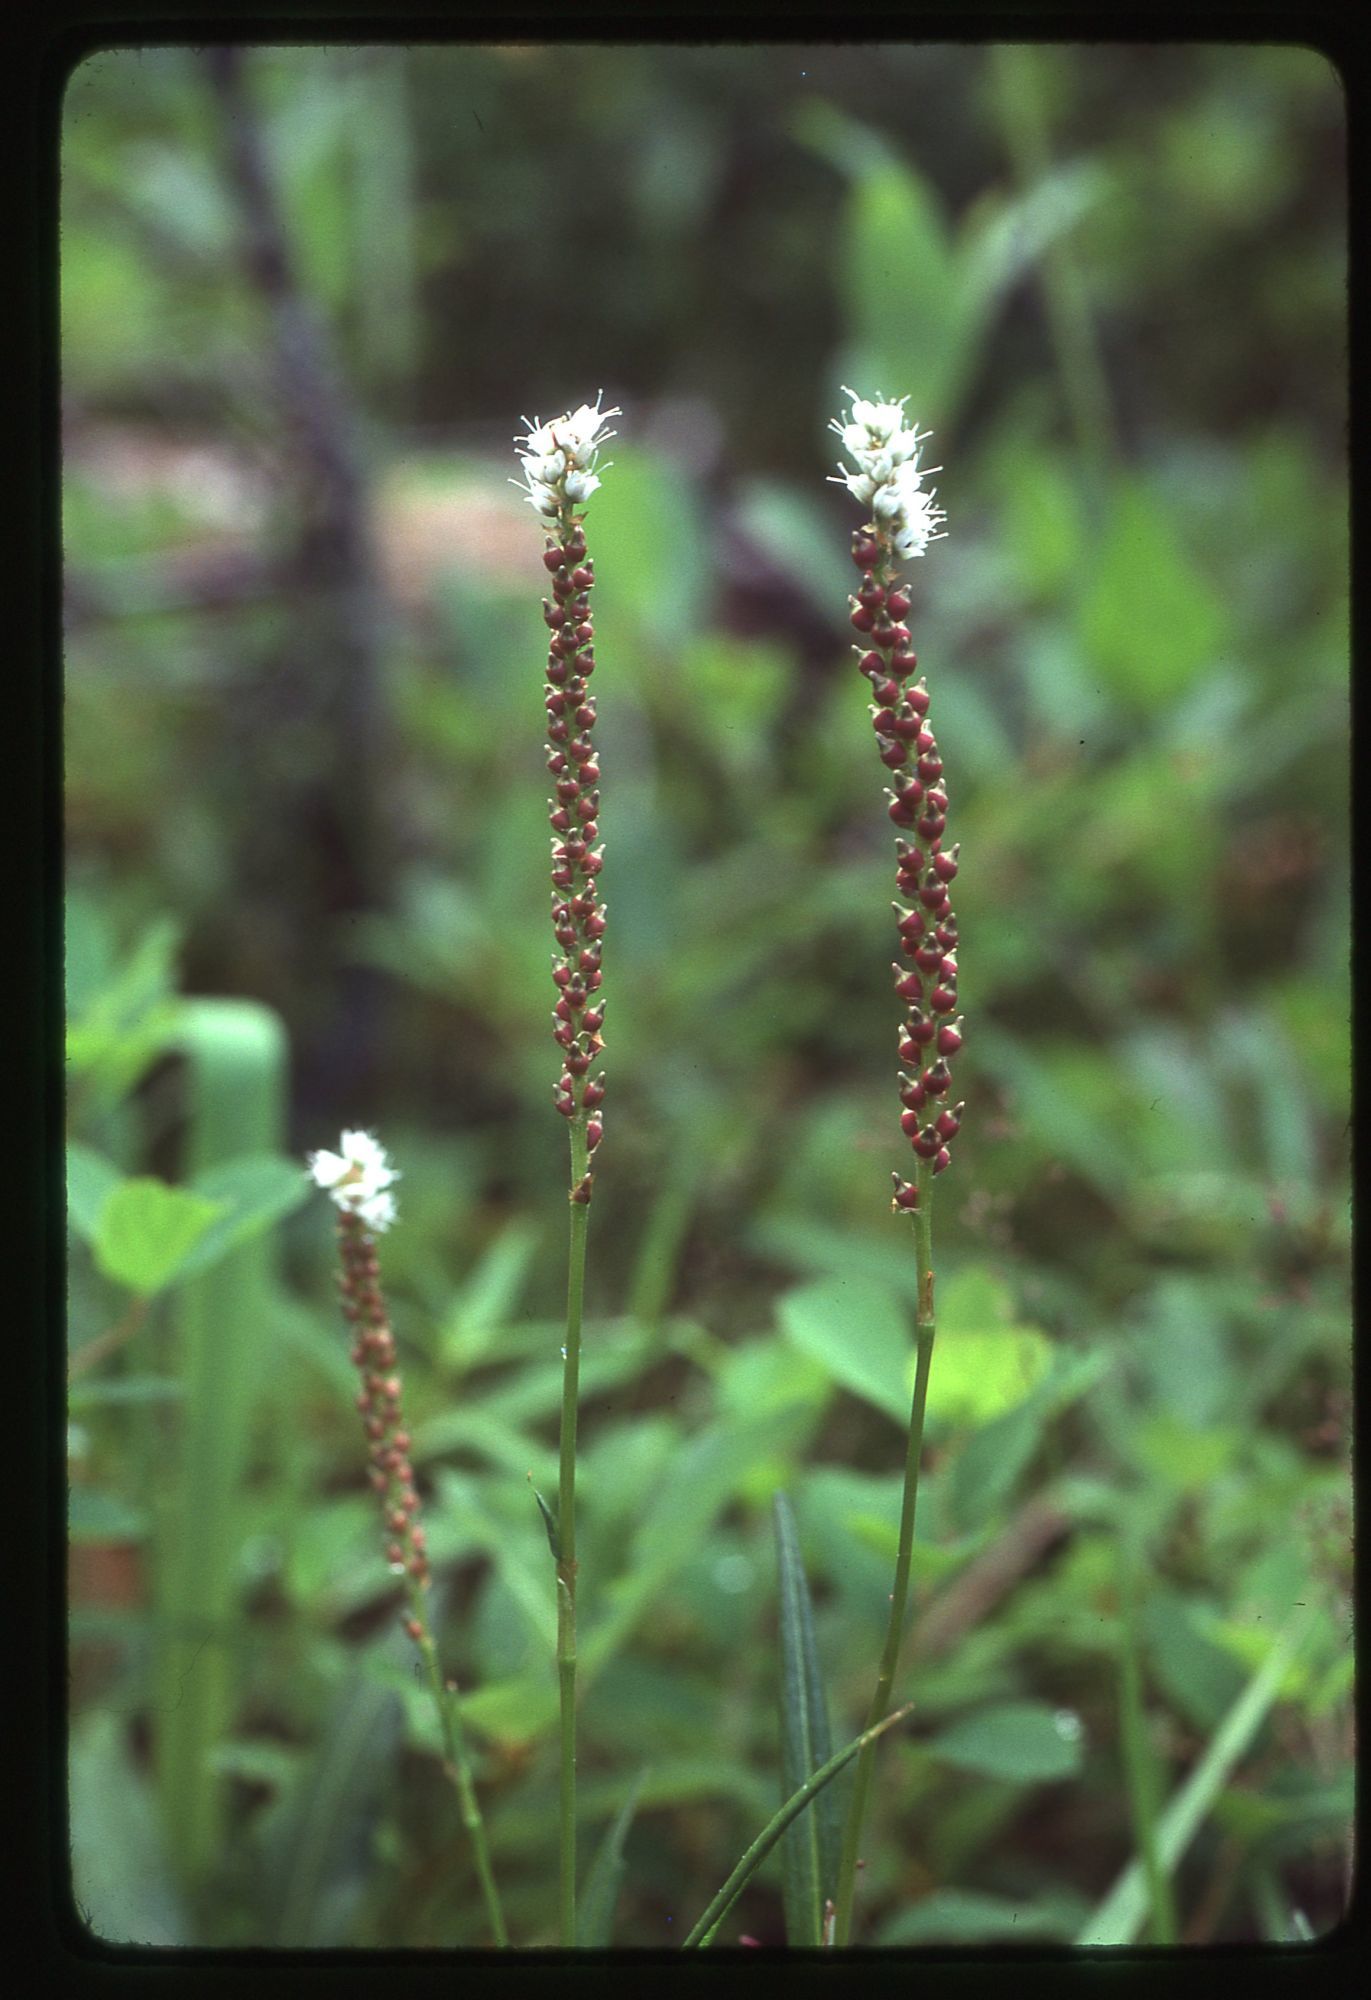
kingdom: Plantae
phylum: Tracheophyta
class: Magnoliopsida
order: Caryophyllales
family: Polygonaceae
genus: Bistorta
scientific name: Bistorta vivipara
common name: Alpine bistort
